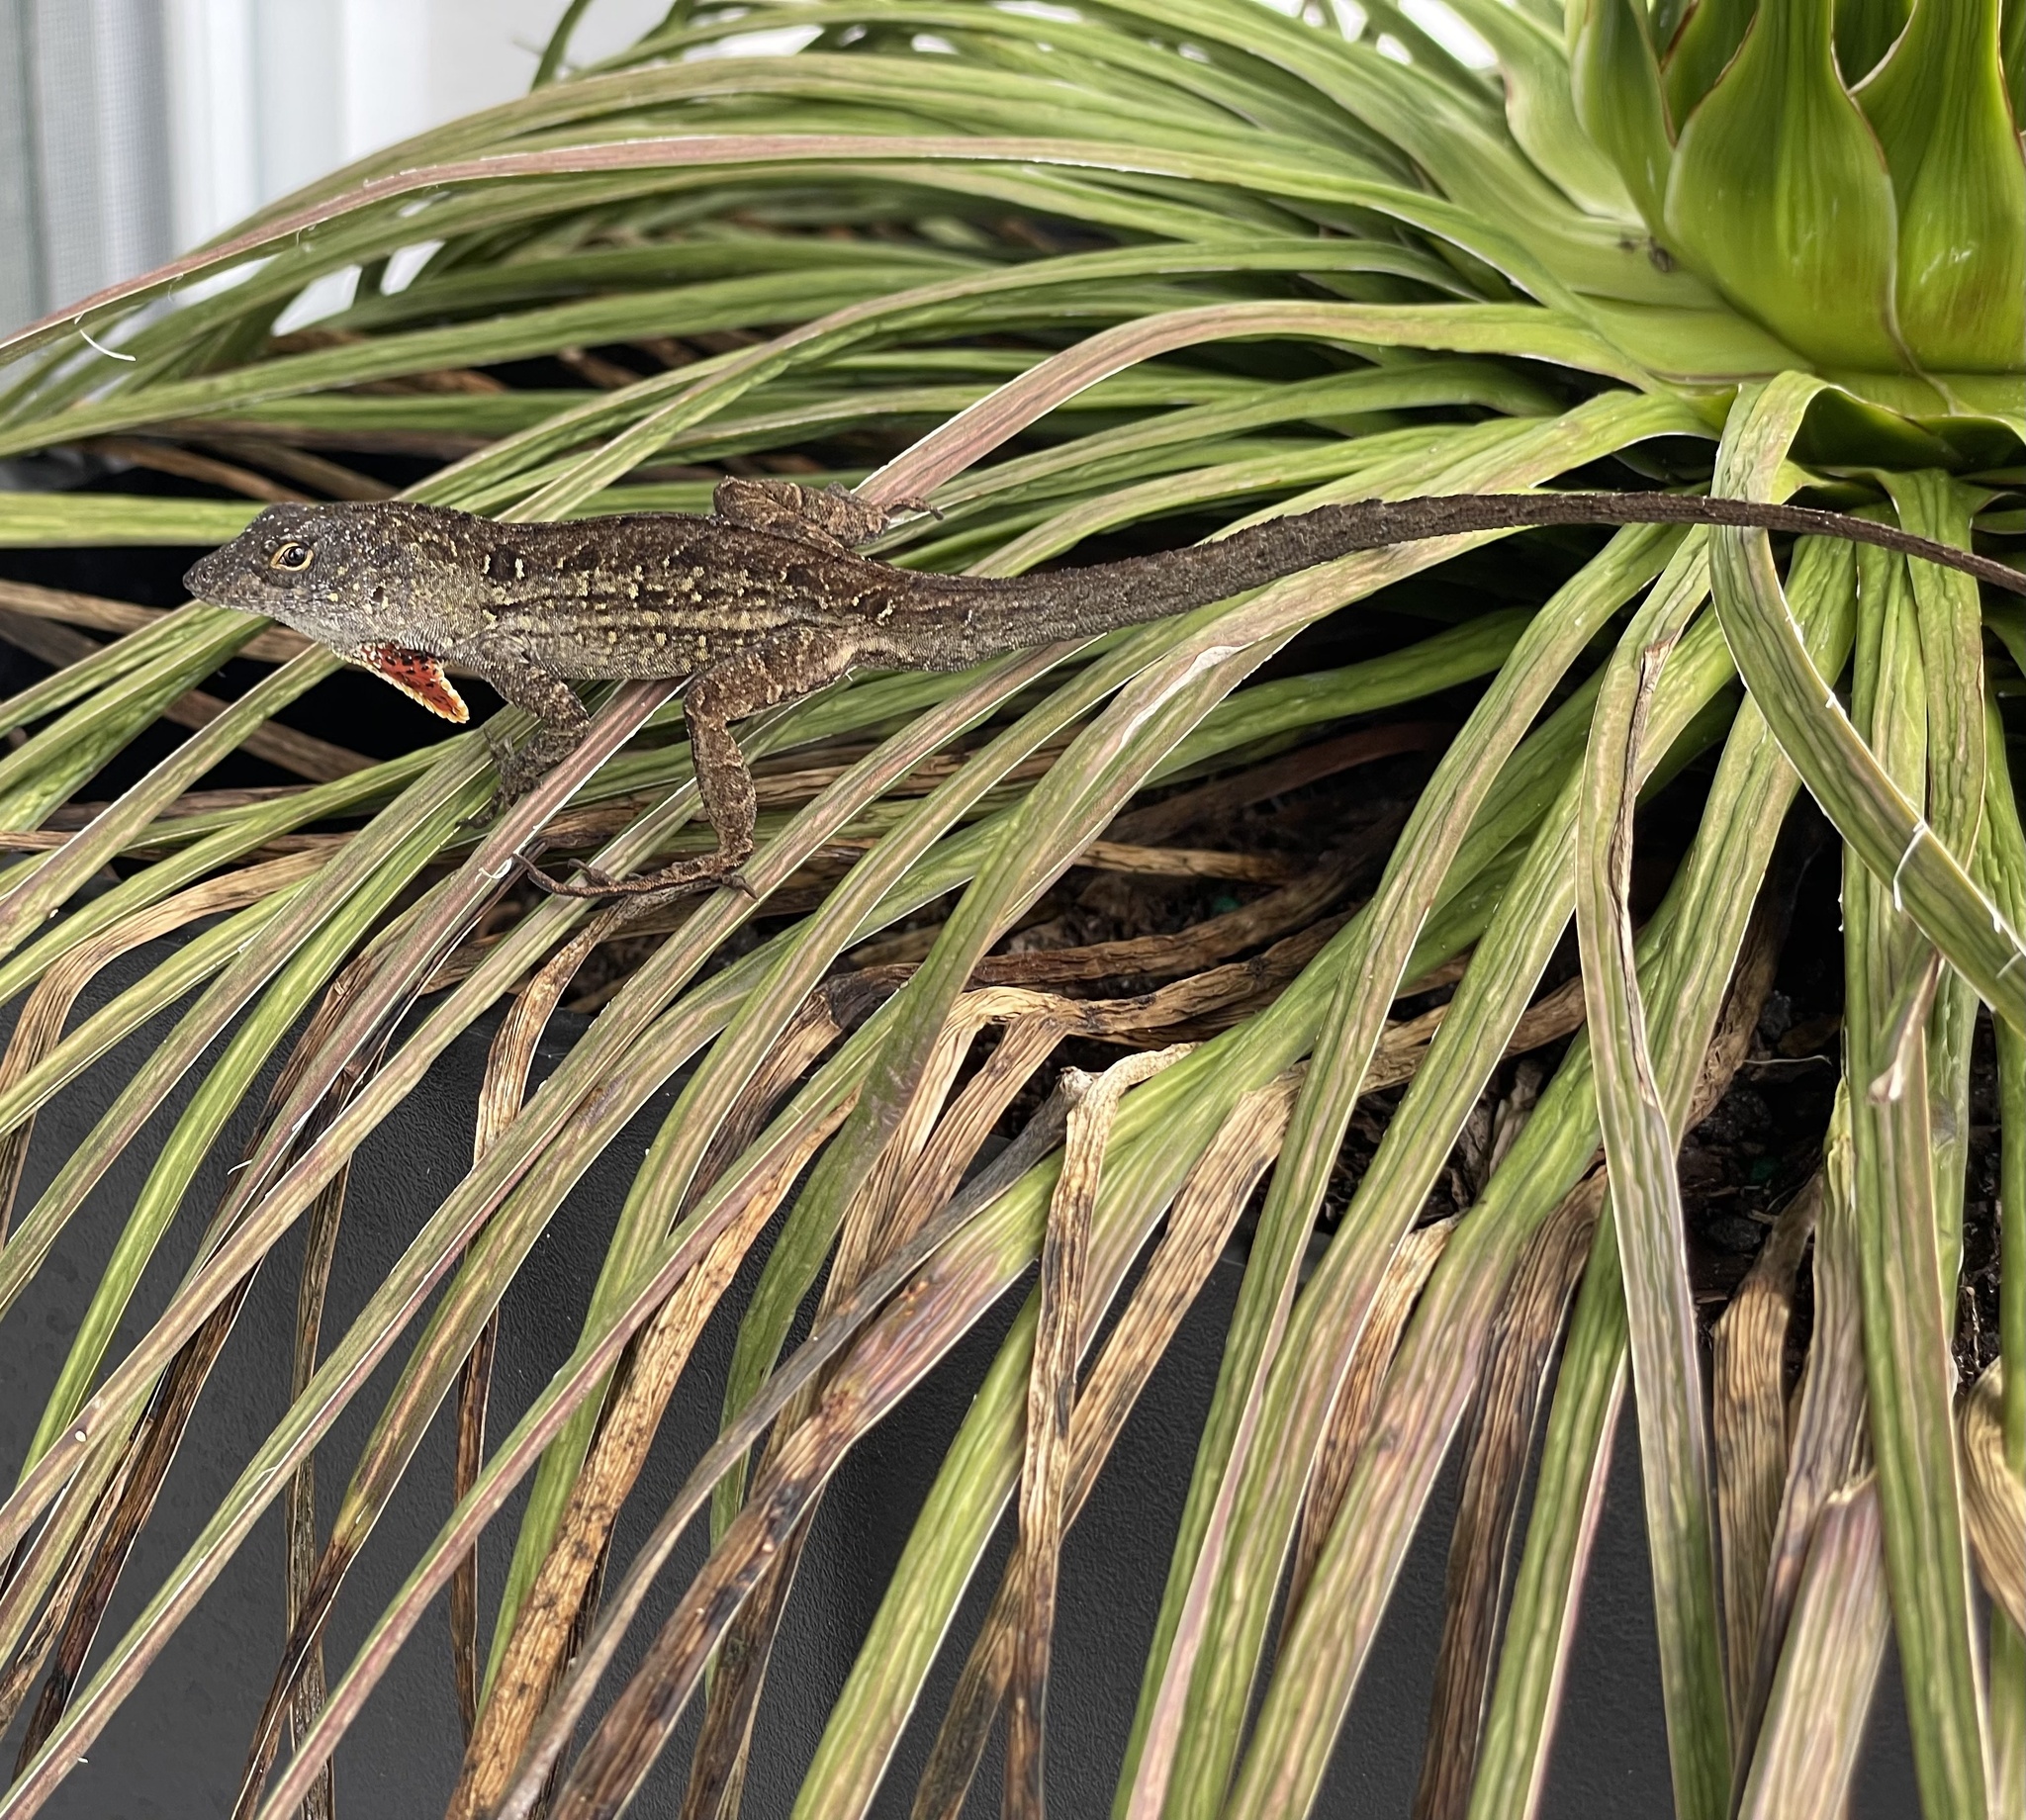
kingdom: Animalia
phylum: Chordata
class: Squamata
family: Dactyloidae
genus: Anolis
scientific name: Anolis sagrei
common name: Brown anole
